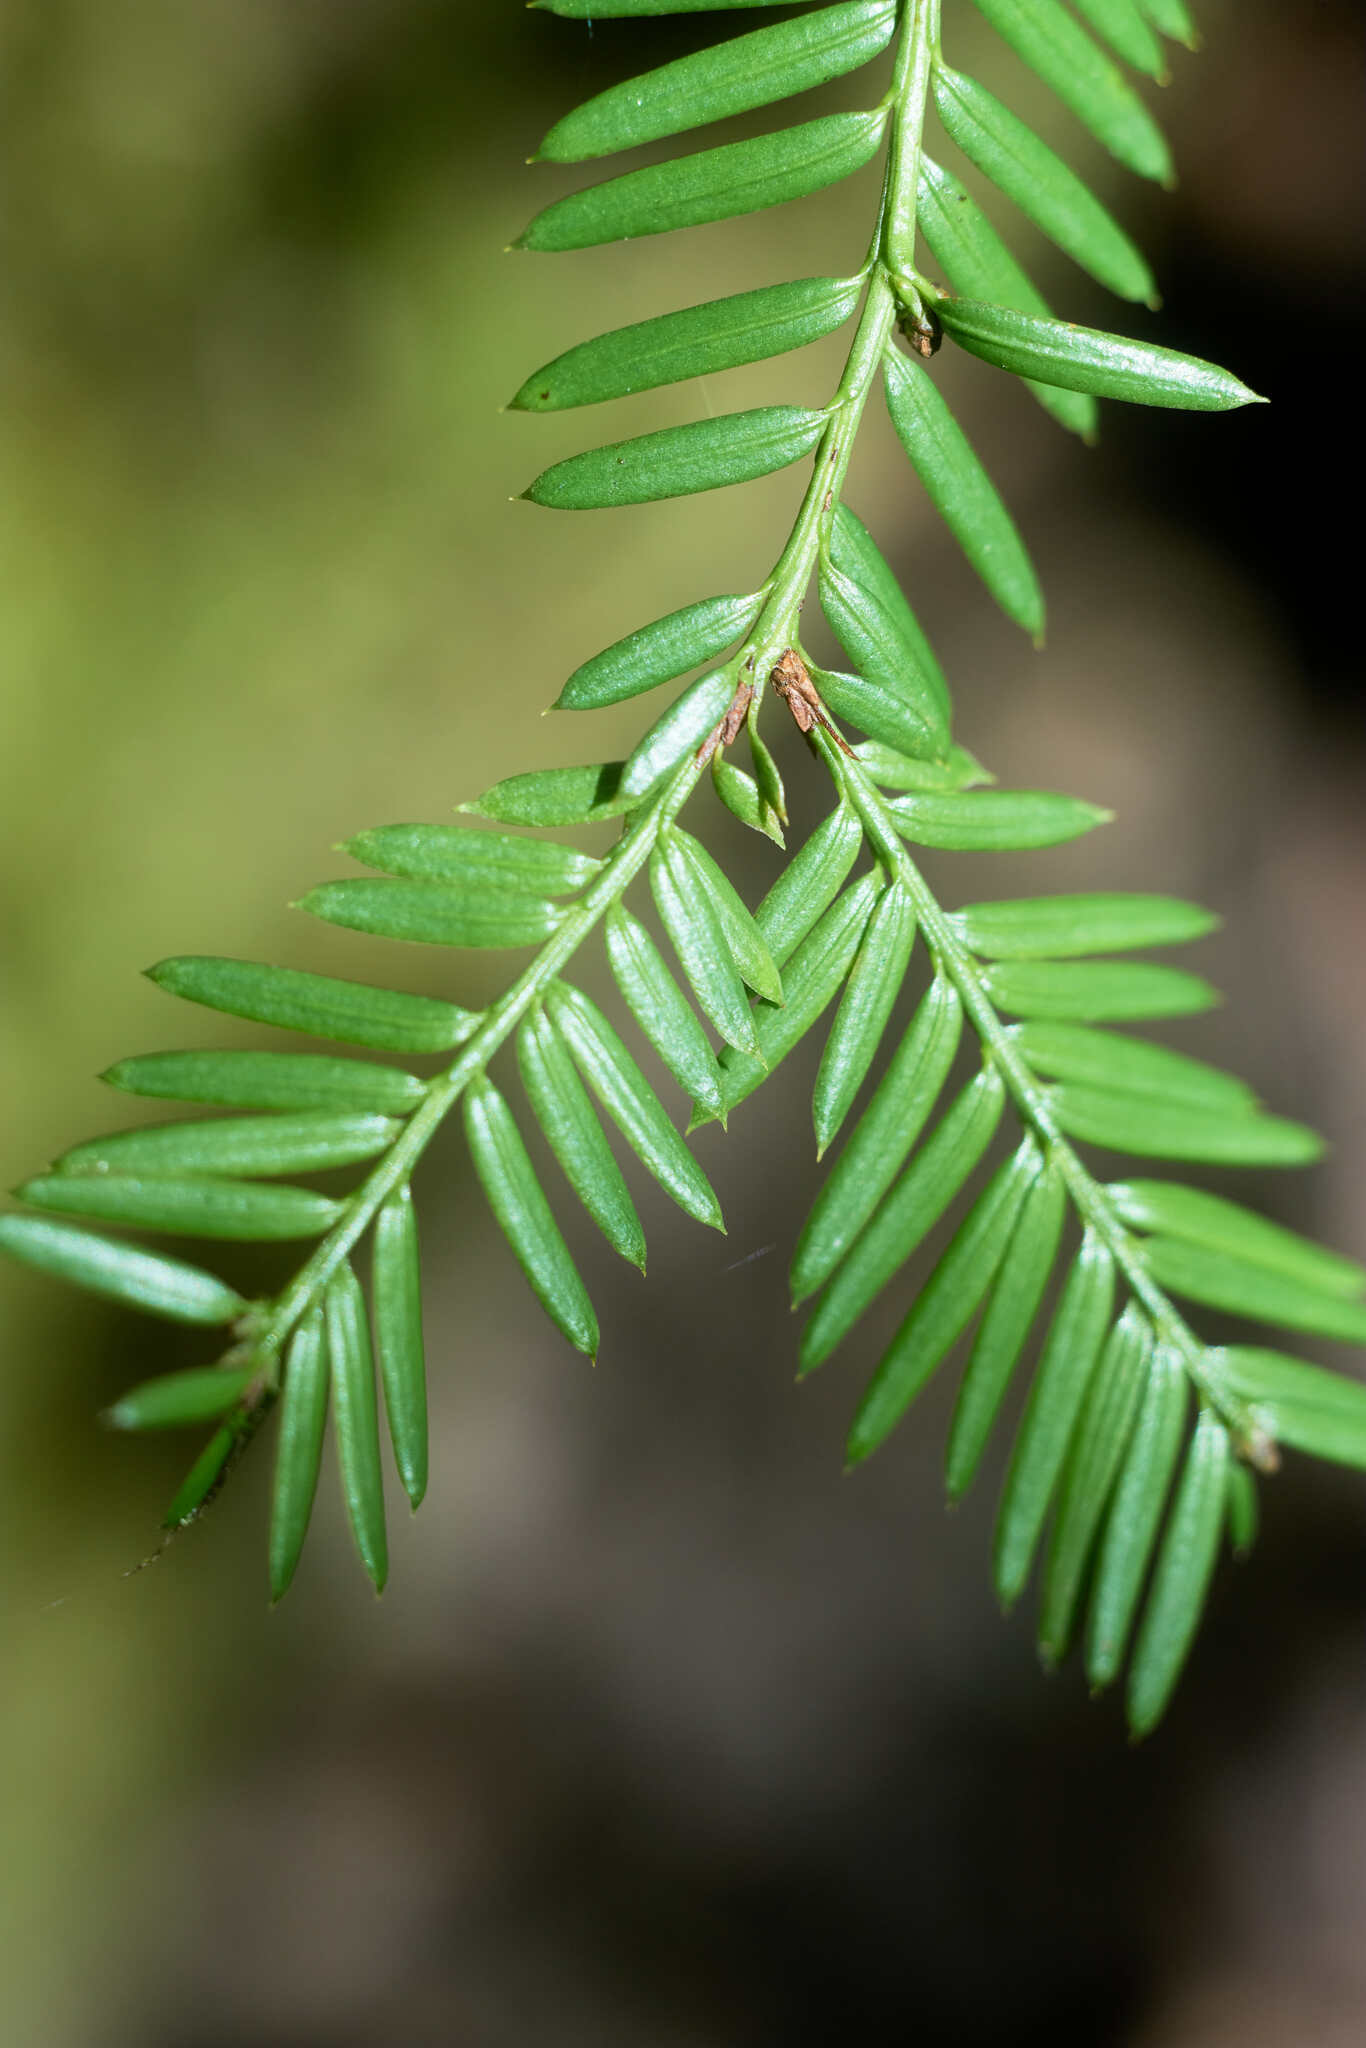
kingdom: Plantae
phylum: Tracheophyta
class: Pinopsida
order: Pinales
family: Taxaceae
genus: Taxus
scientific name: Taxus brevifolia
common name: Pacific yew
